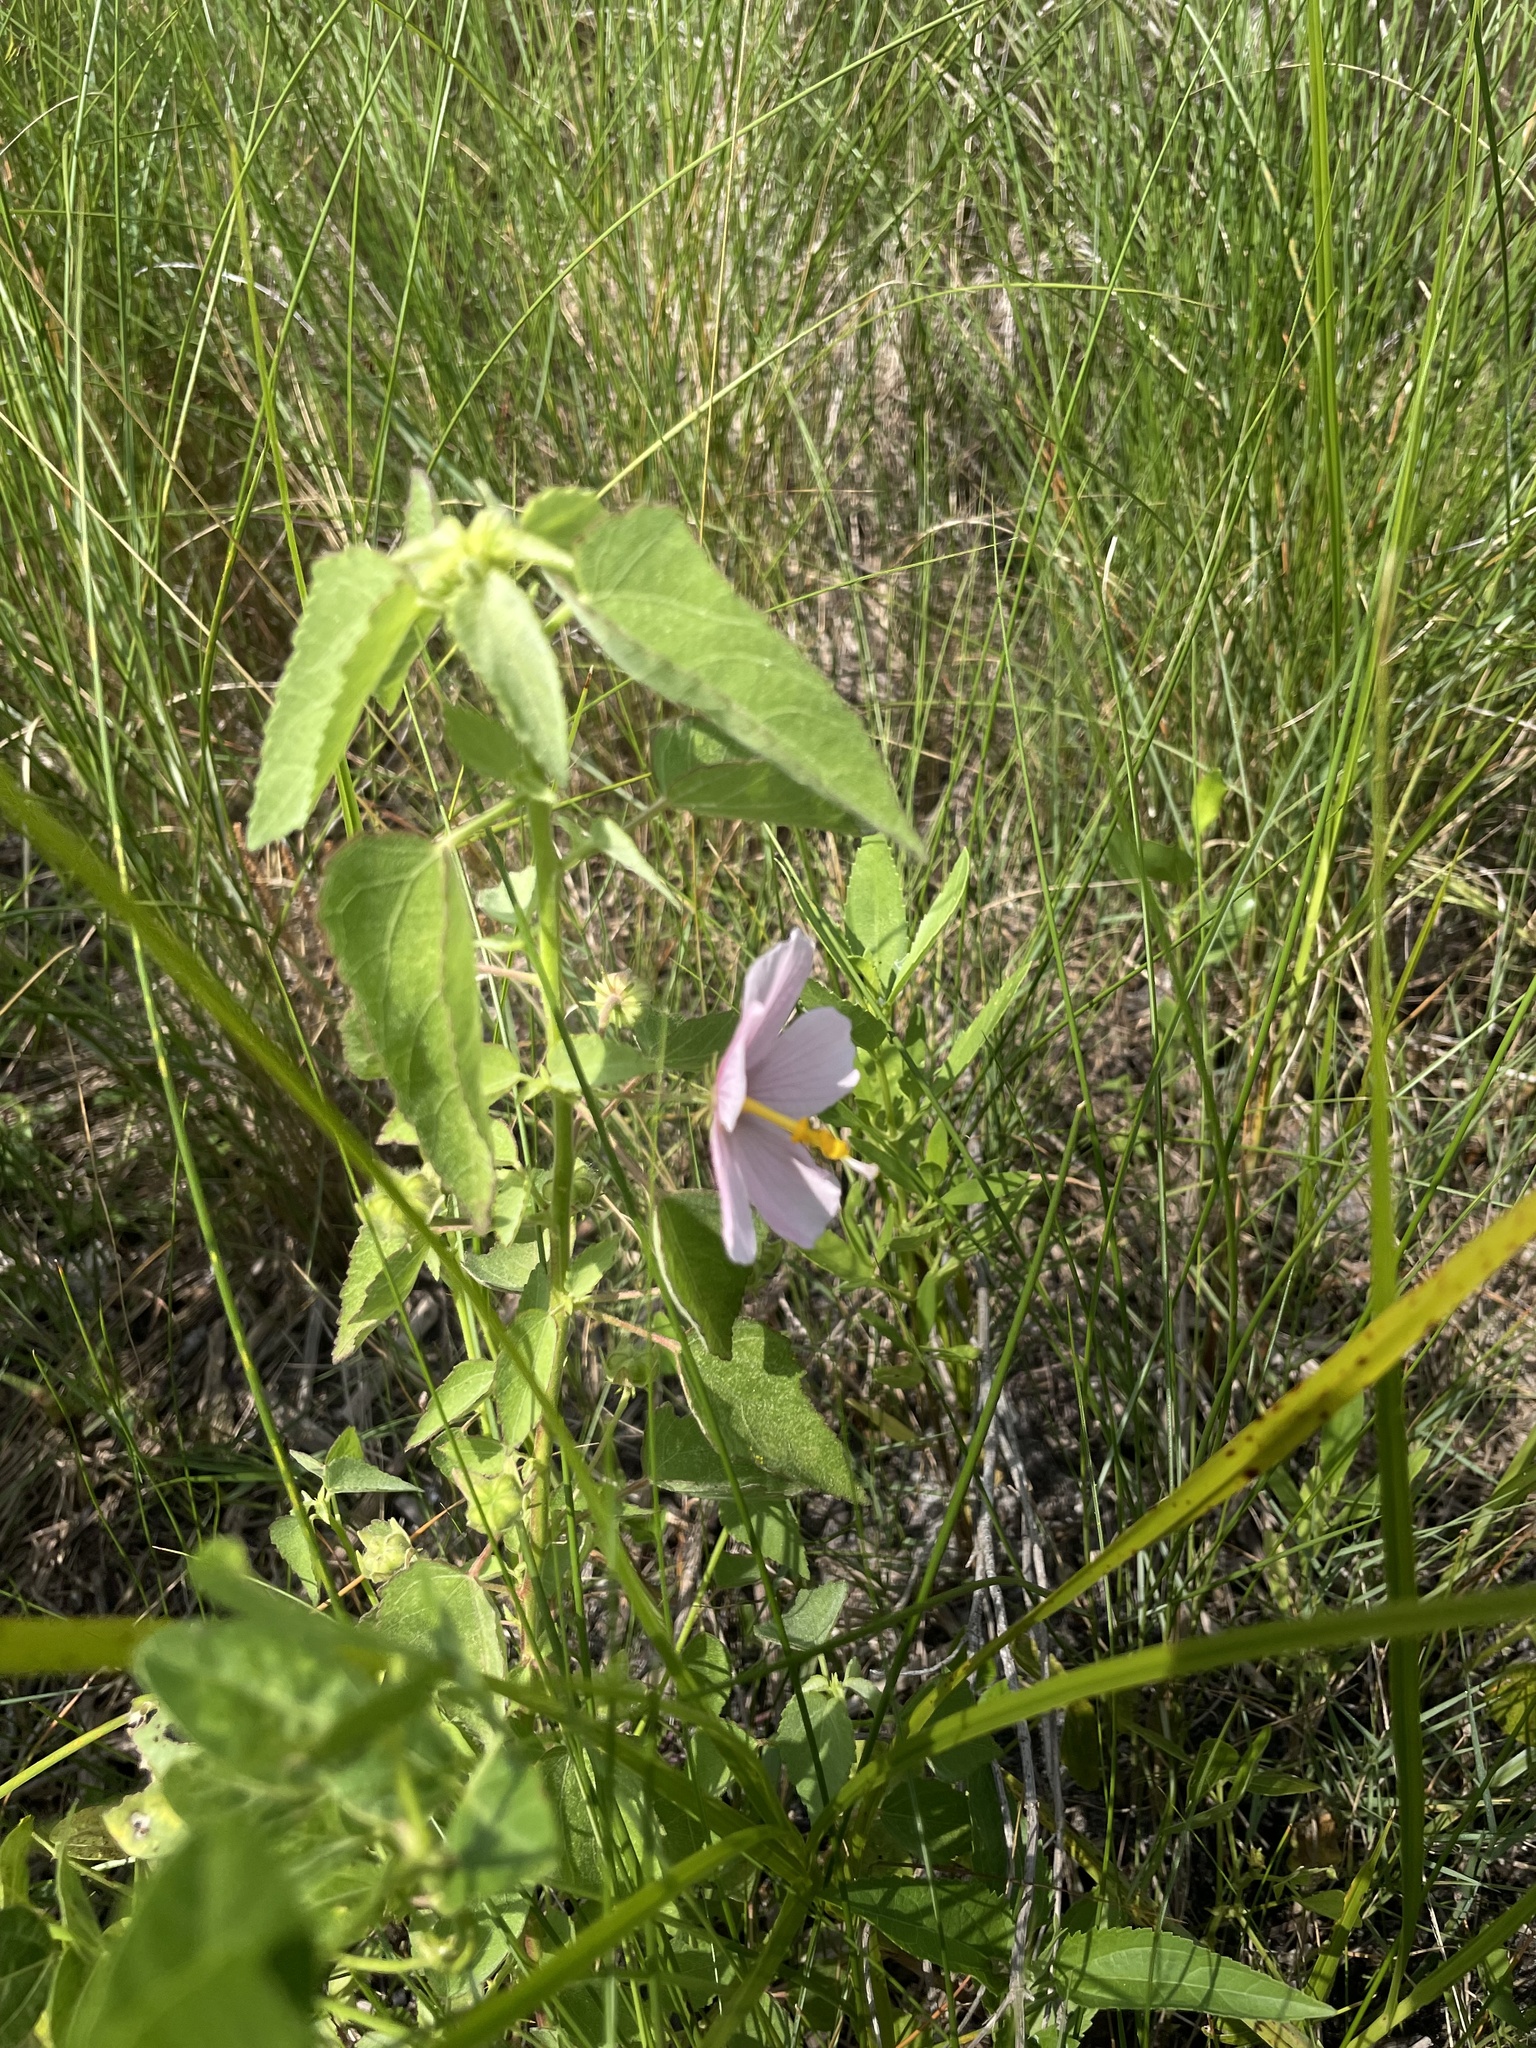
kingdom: Plantae
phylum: Tracheophyta
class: Magnoliopsida
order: Malvales
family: Malvaceae
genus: Kosteletzkya
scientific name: Kosteletzkya pentacarpos
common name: Virginia saltmarsh mallow
